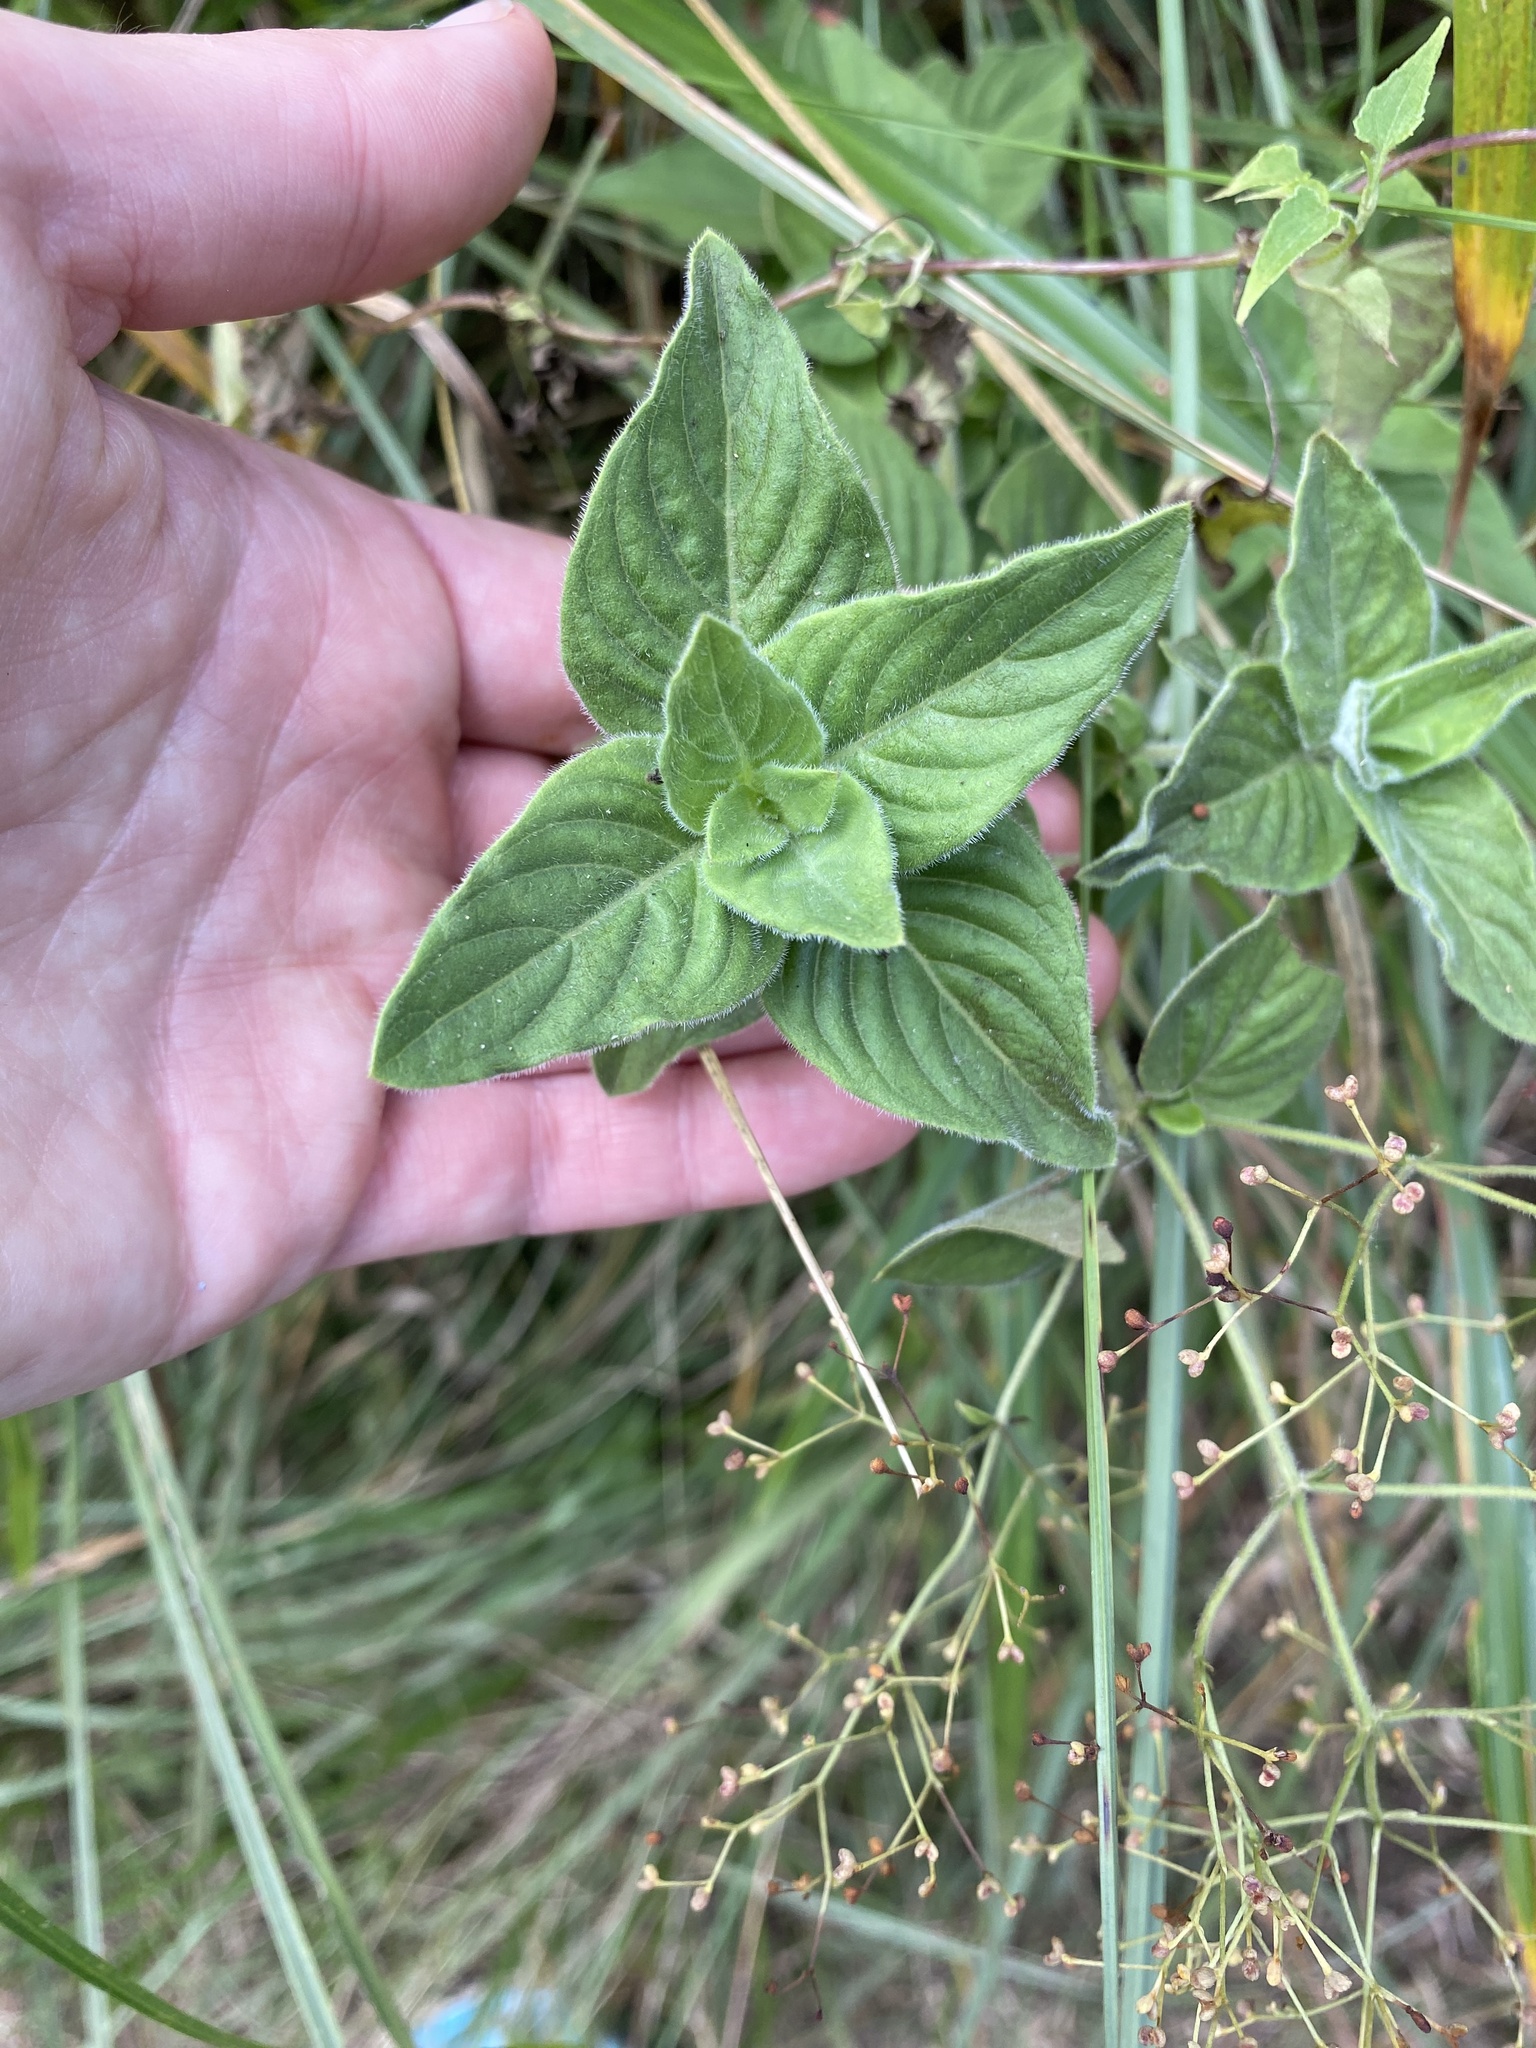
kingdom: Plantae
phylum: Tracheophyta
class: Magnoliopsida
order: Lamiales
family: Acanthaceae
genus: Barleria
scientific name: Barleria obtusa
